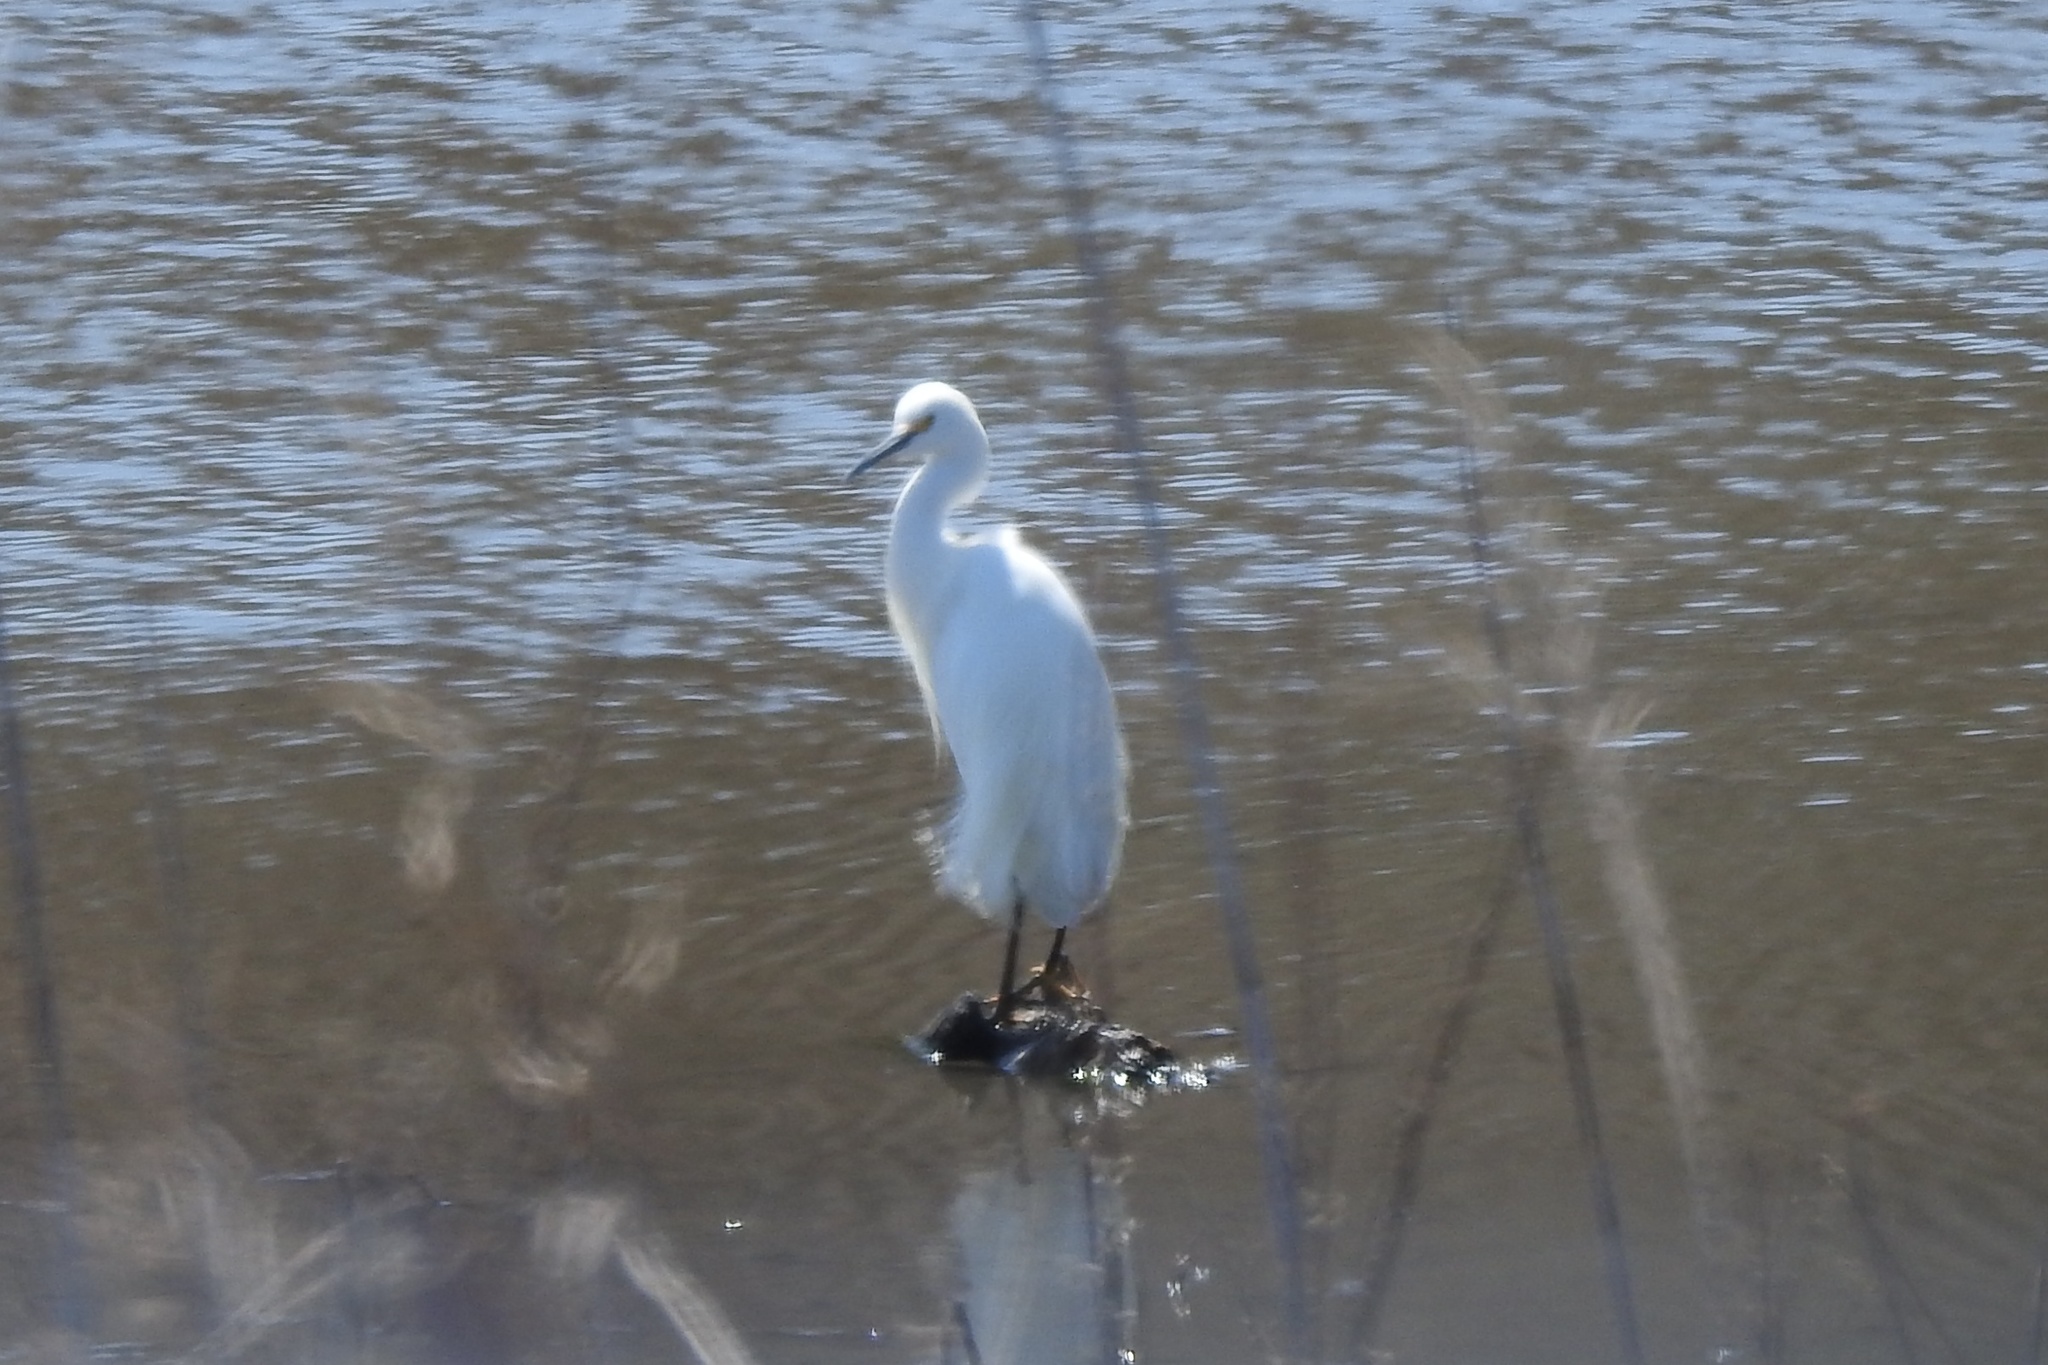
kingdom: Animalia
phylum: Chordata
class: Aves
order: Pelecaniformes
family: Ardeidae
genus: Egretta
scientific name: Egretta thula
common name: Snowy egret
